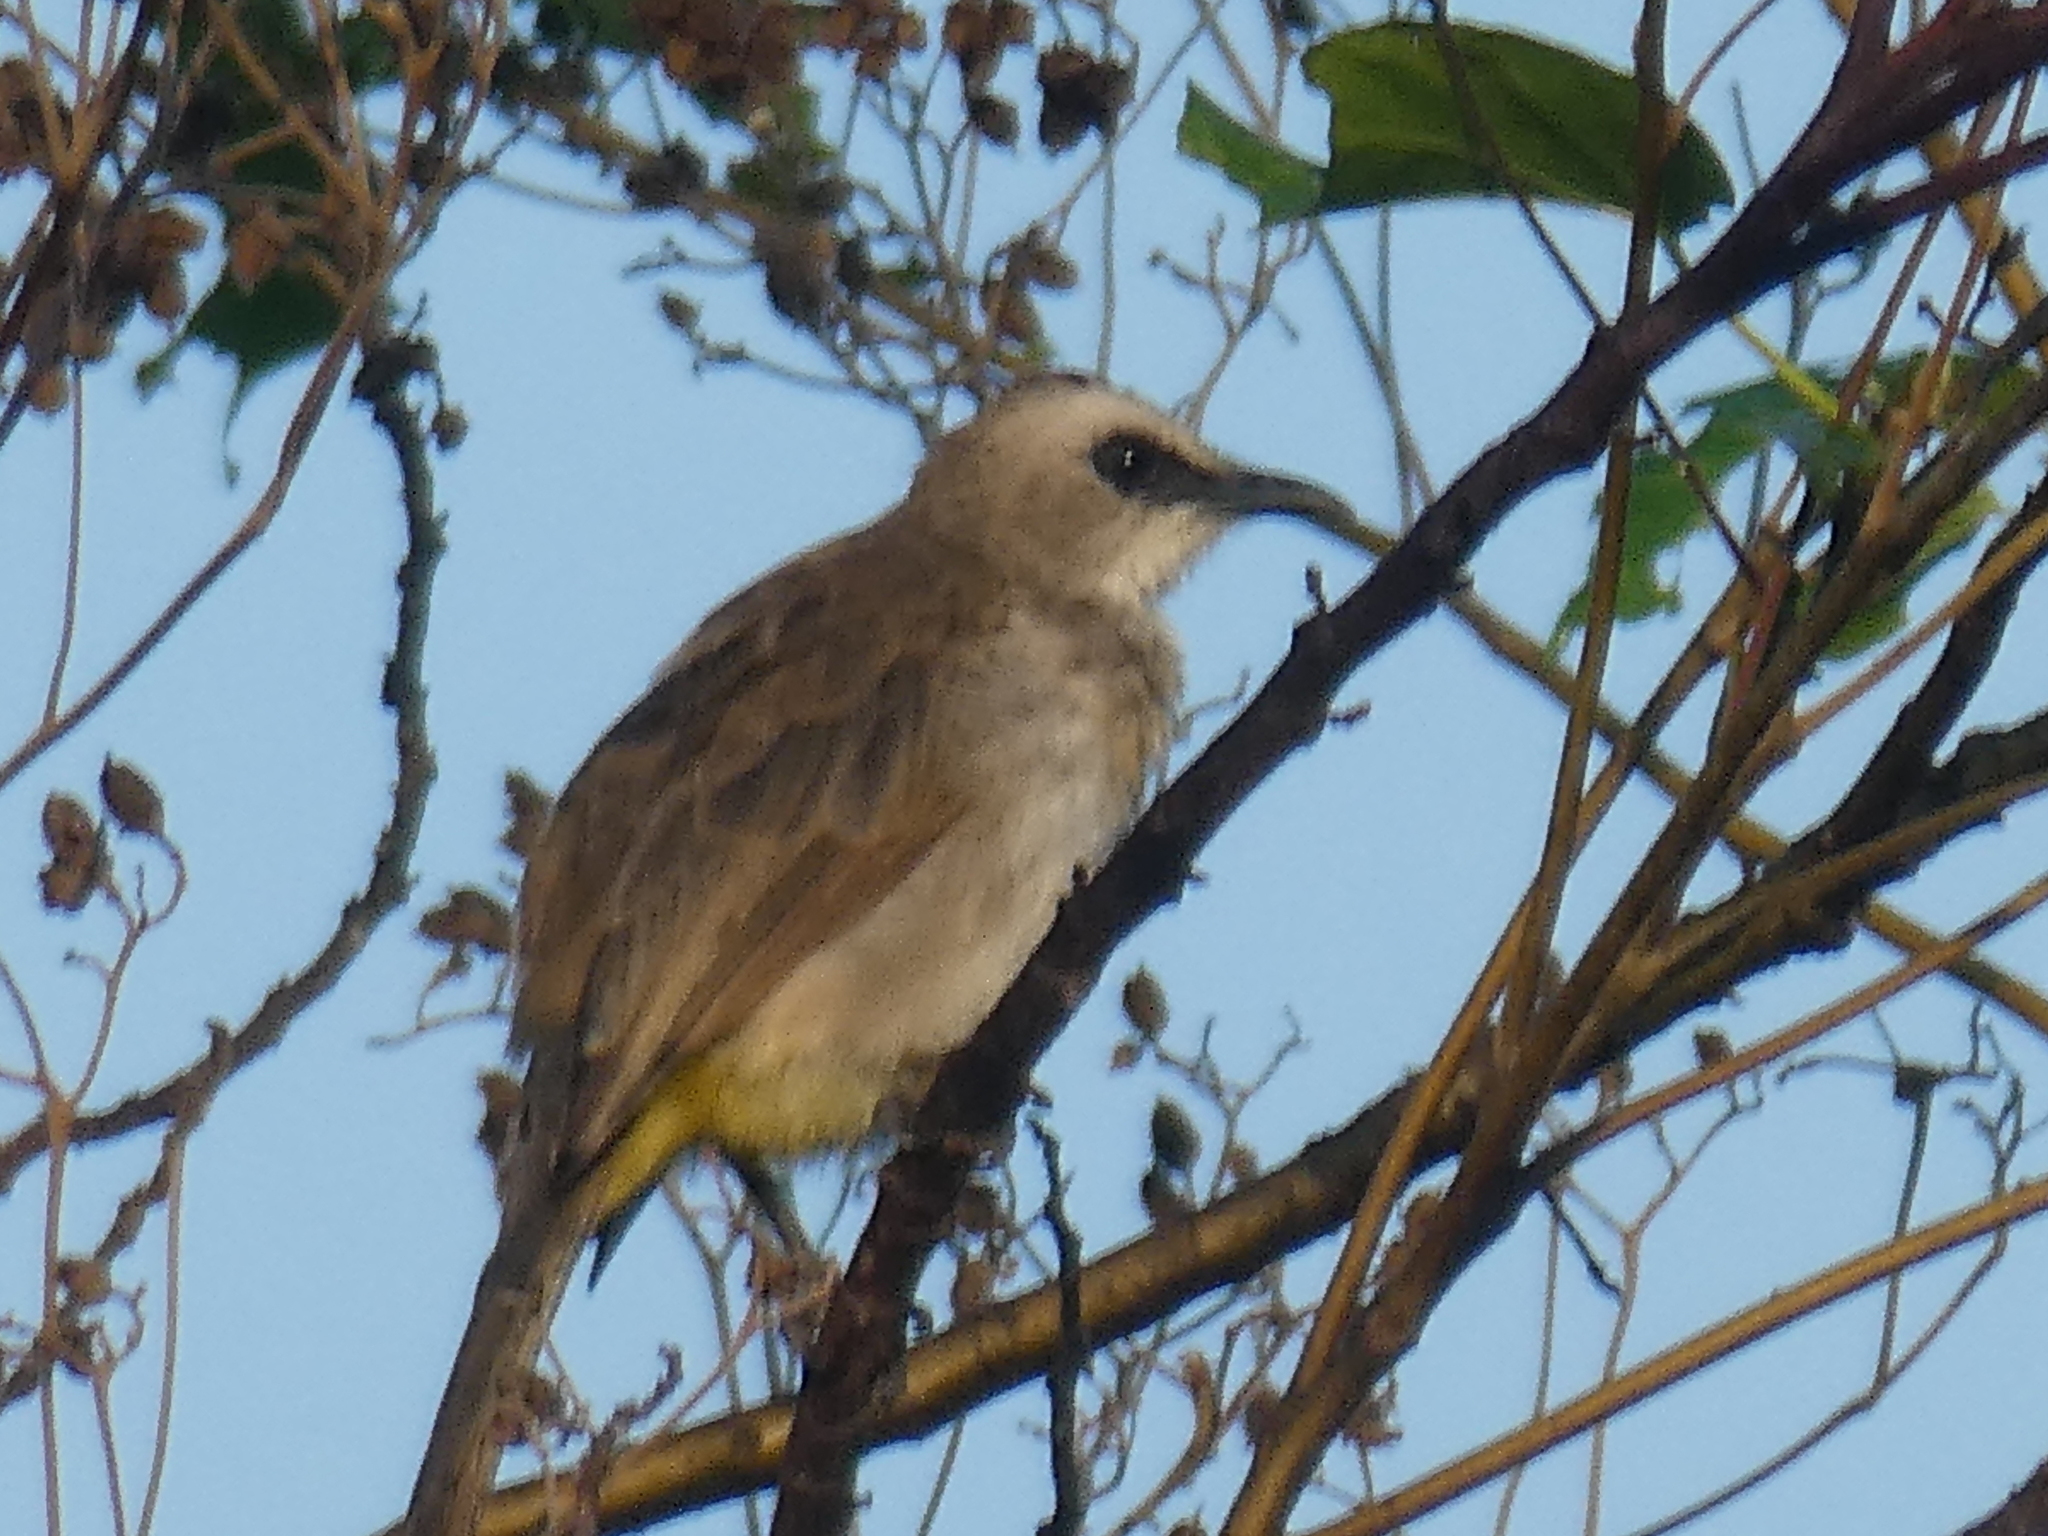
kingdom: Animalia
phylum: Chordata
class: Aves
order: Passeriformes
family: Pycnonotidae
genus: Pycnonotus
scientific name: Pycnonotus goiavier
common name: Yellow-vented bulbul
